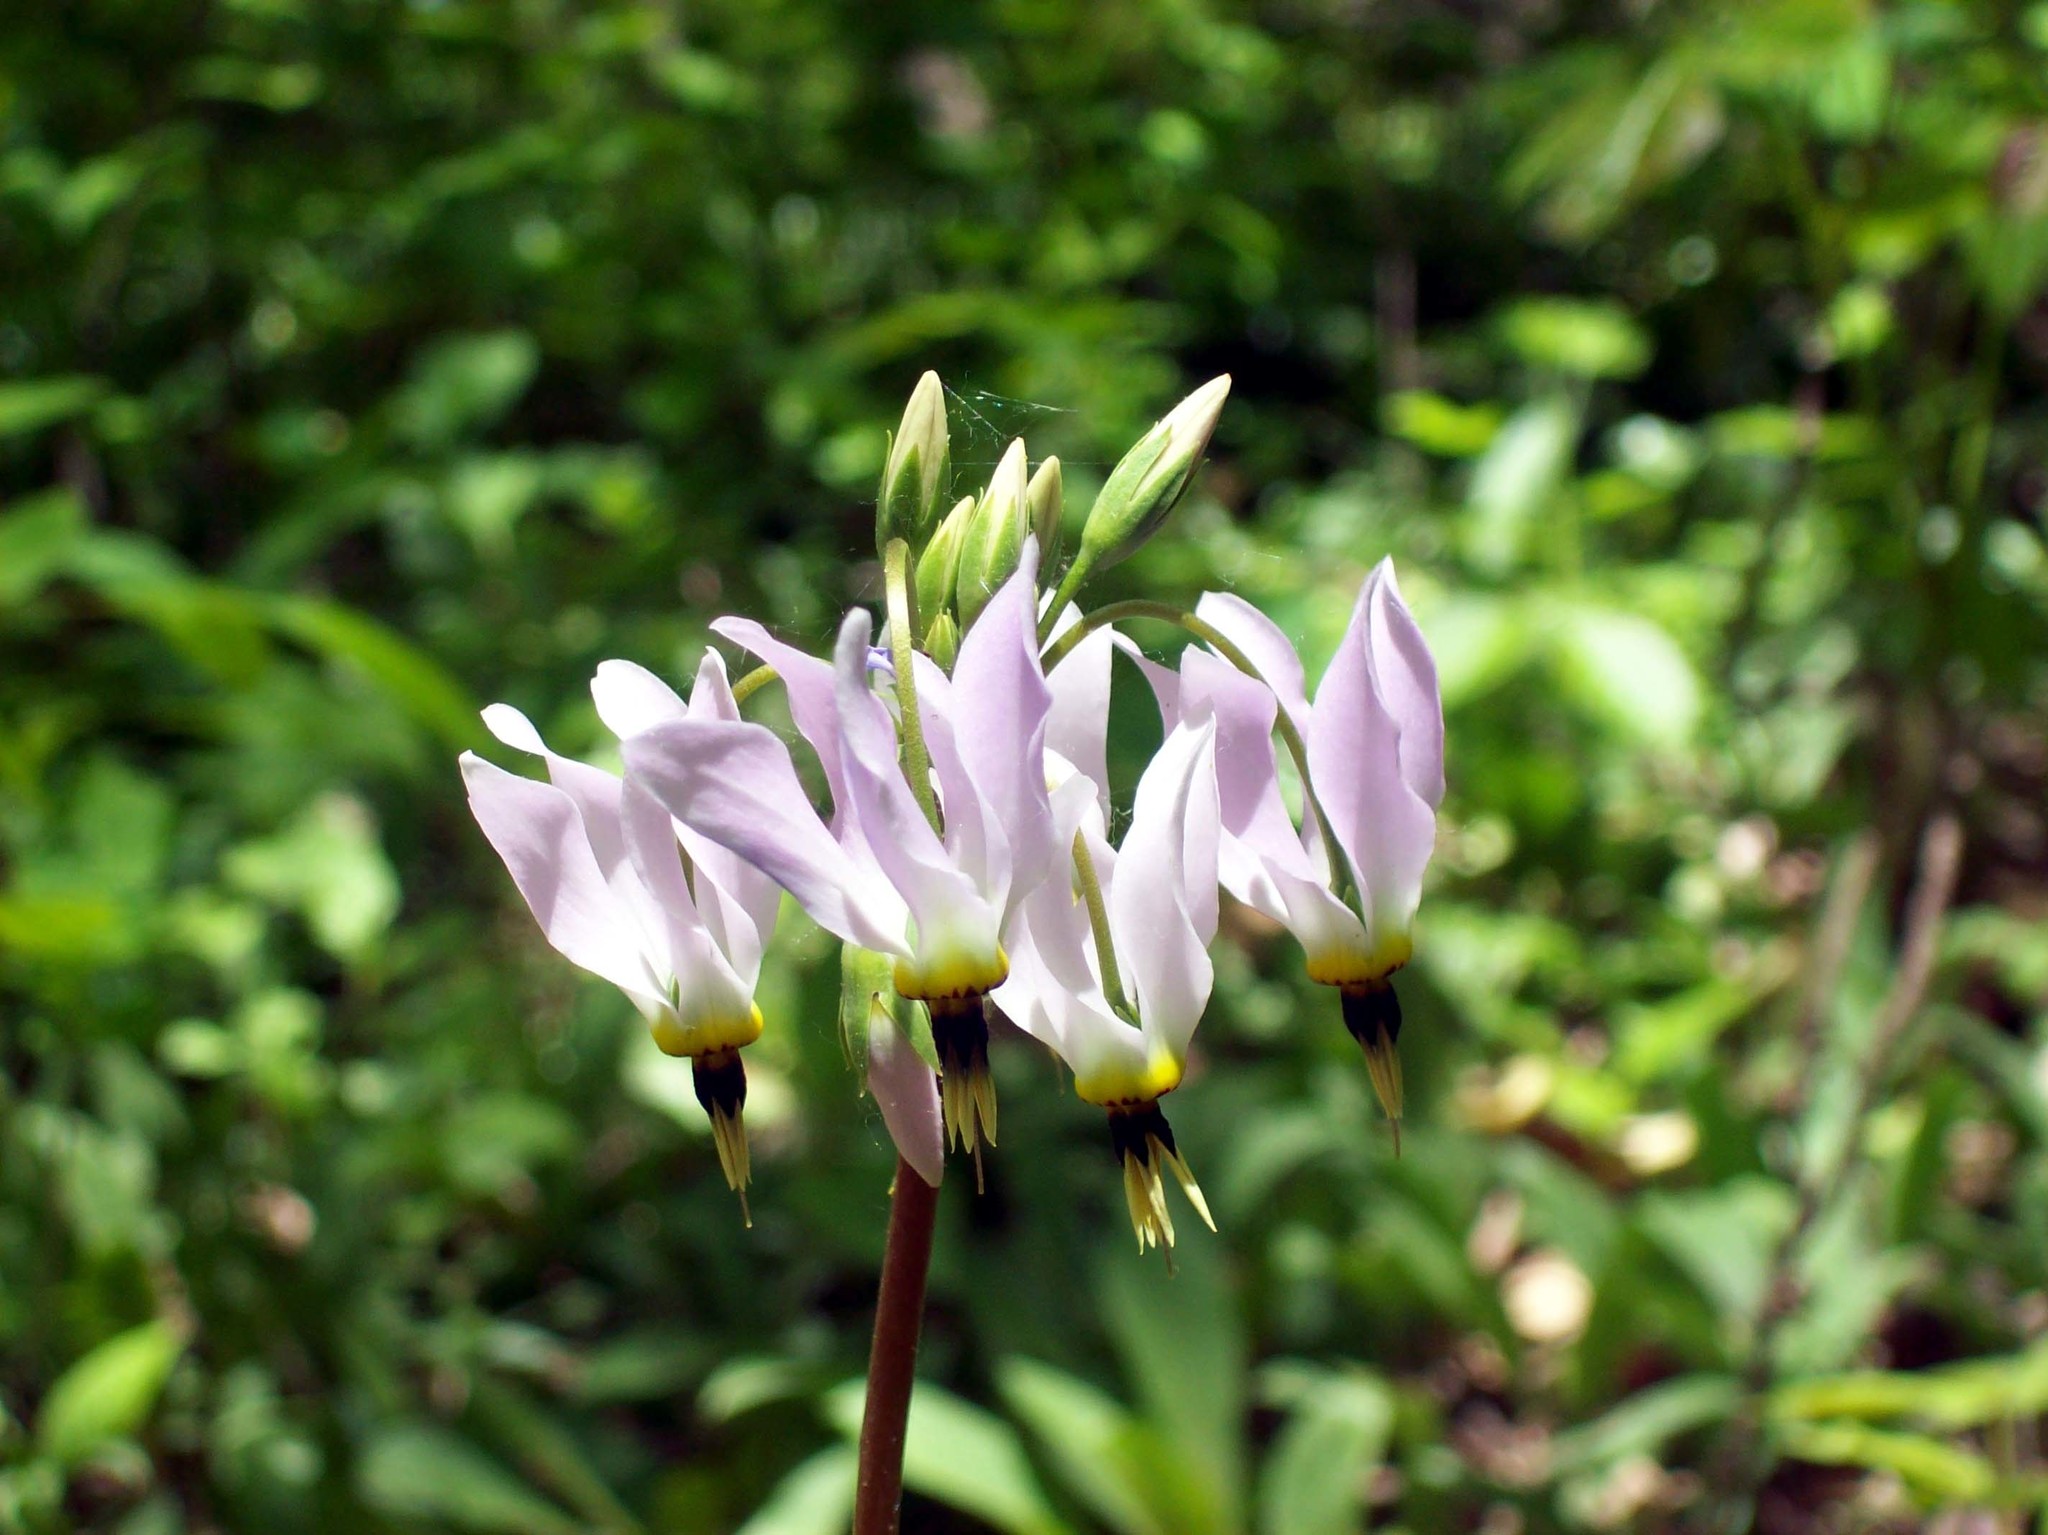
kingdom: Plantae
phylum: Tracheophyta
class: Magnoliopsida
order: Ericales
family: Primulaceae
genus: Dodecatheon
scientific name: Dodecatheon meadia
